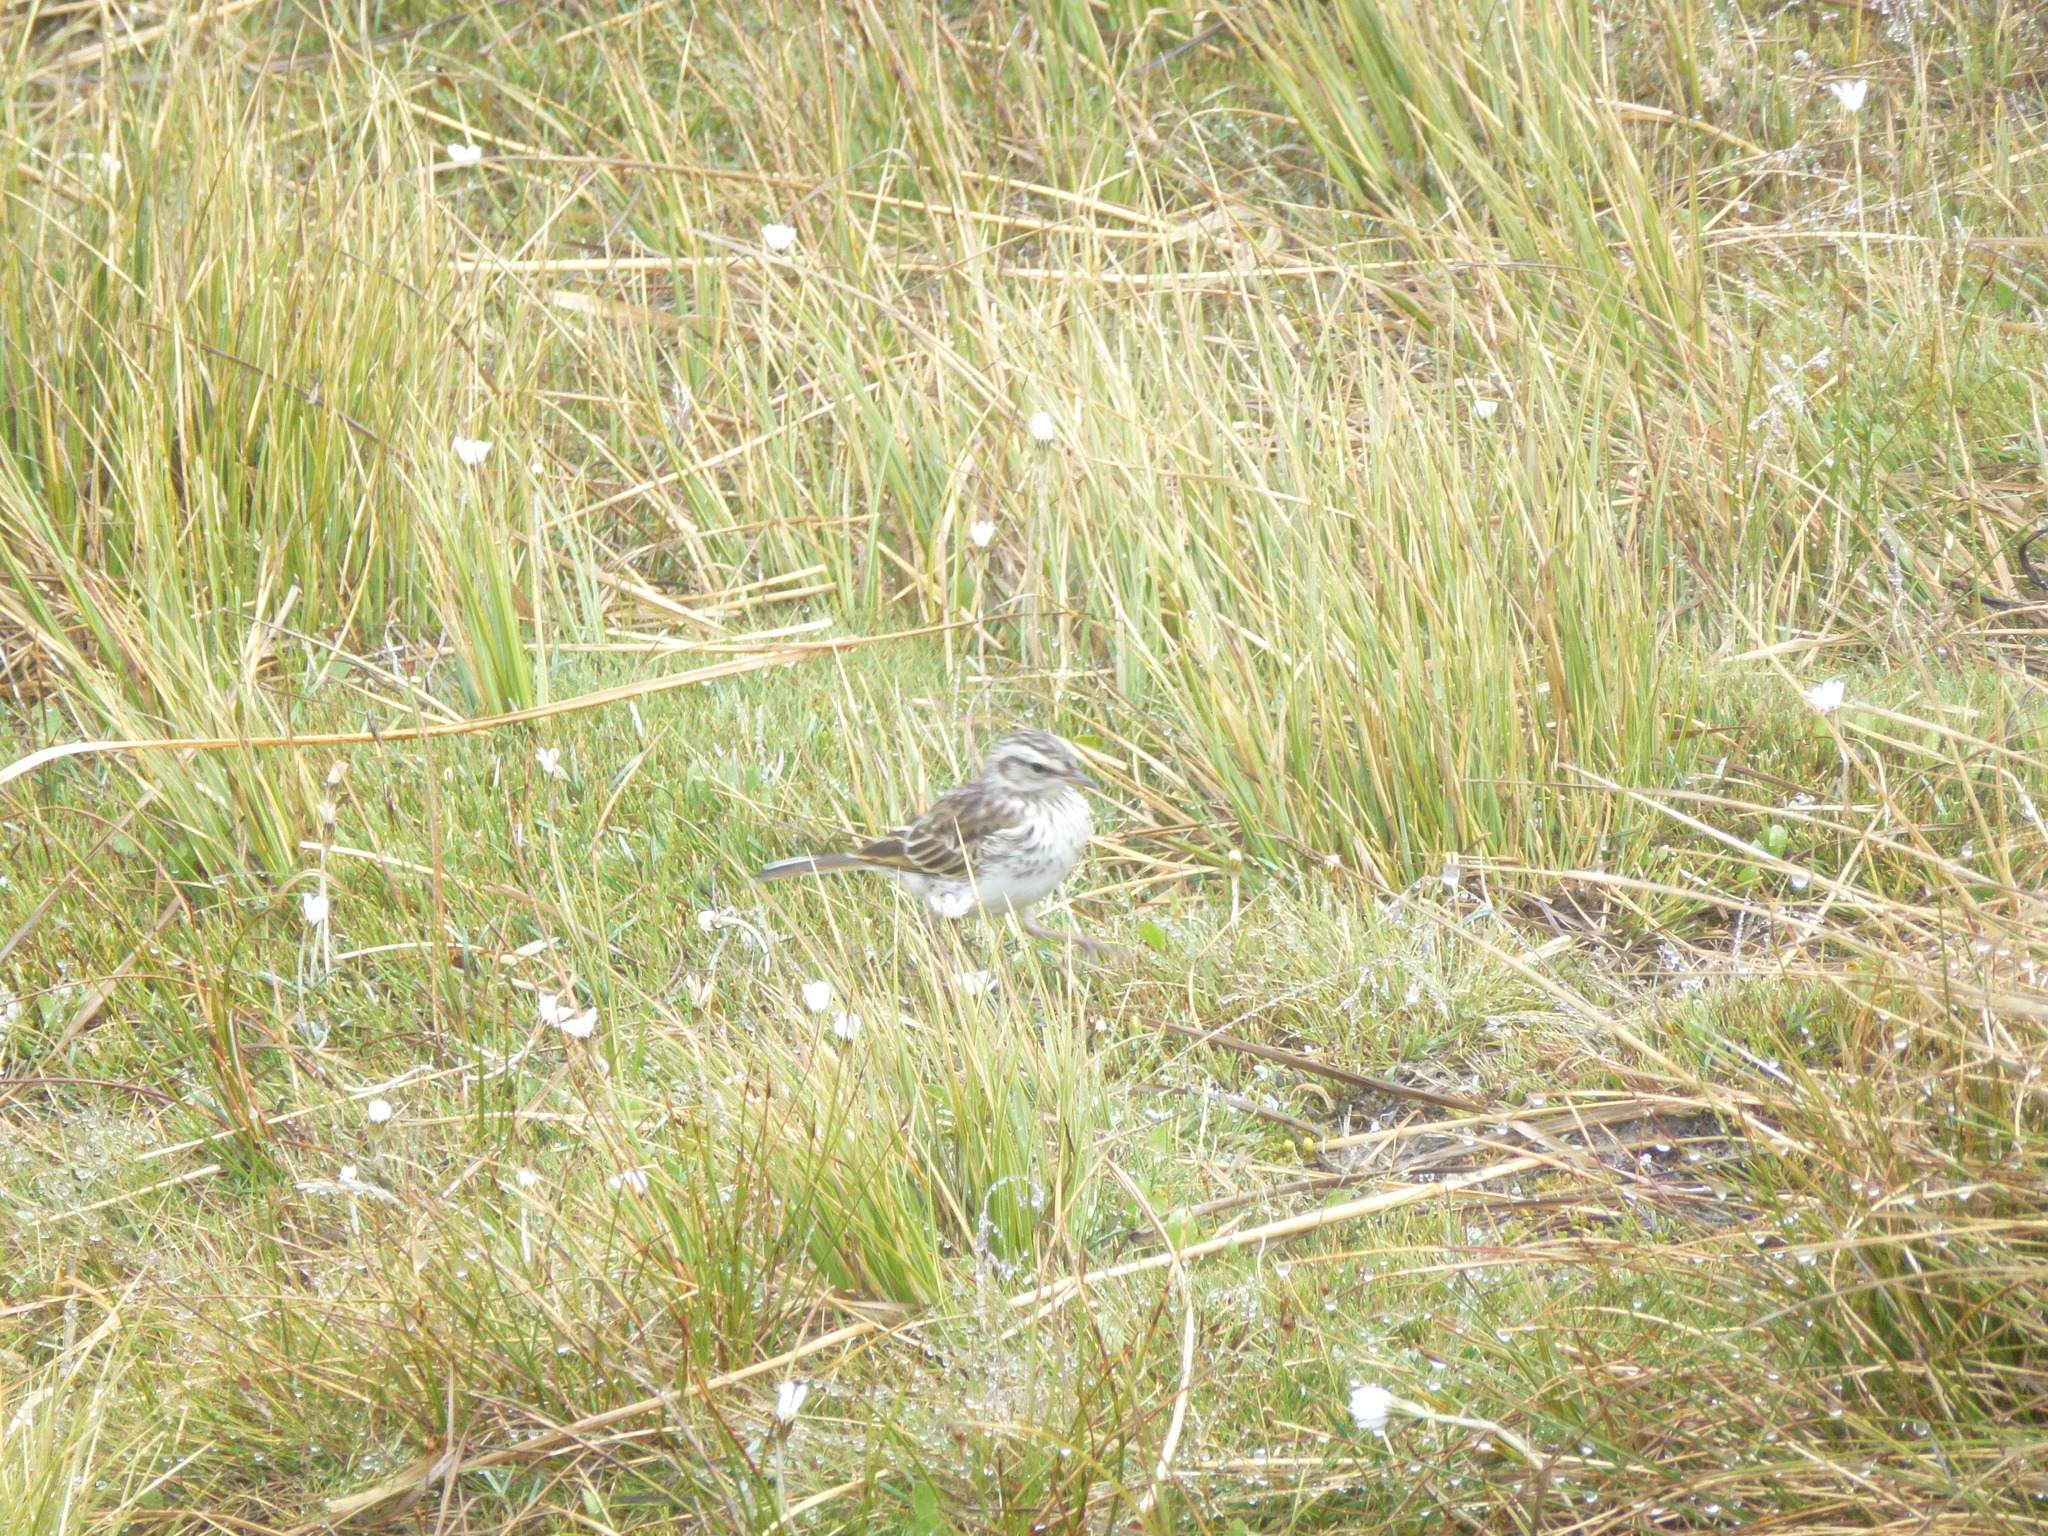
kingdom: Animalia
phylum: Chordata
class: Aves
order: Passeriformes
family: Motacillidae
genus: Anthus
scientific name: Anthus novaeseelandiae
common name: New zealand pipit
